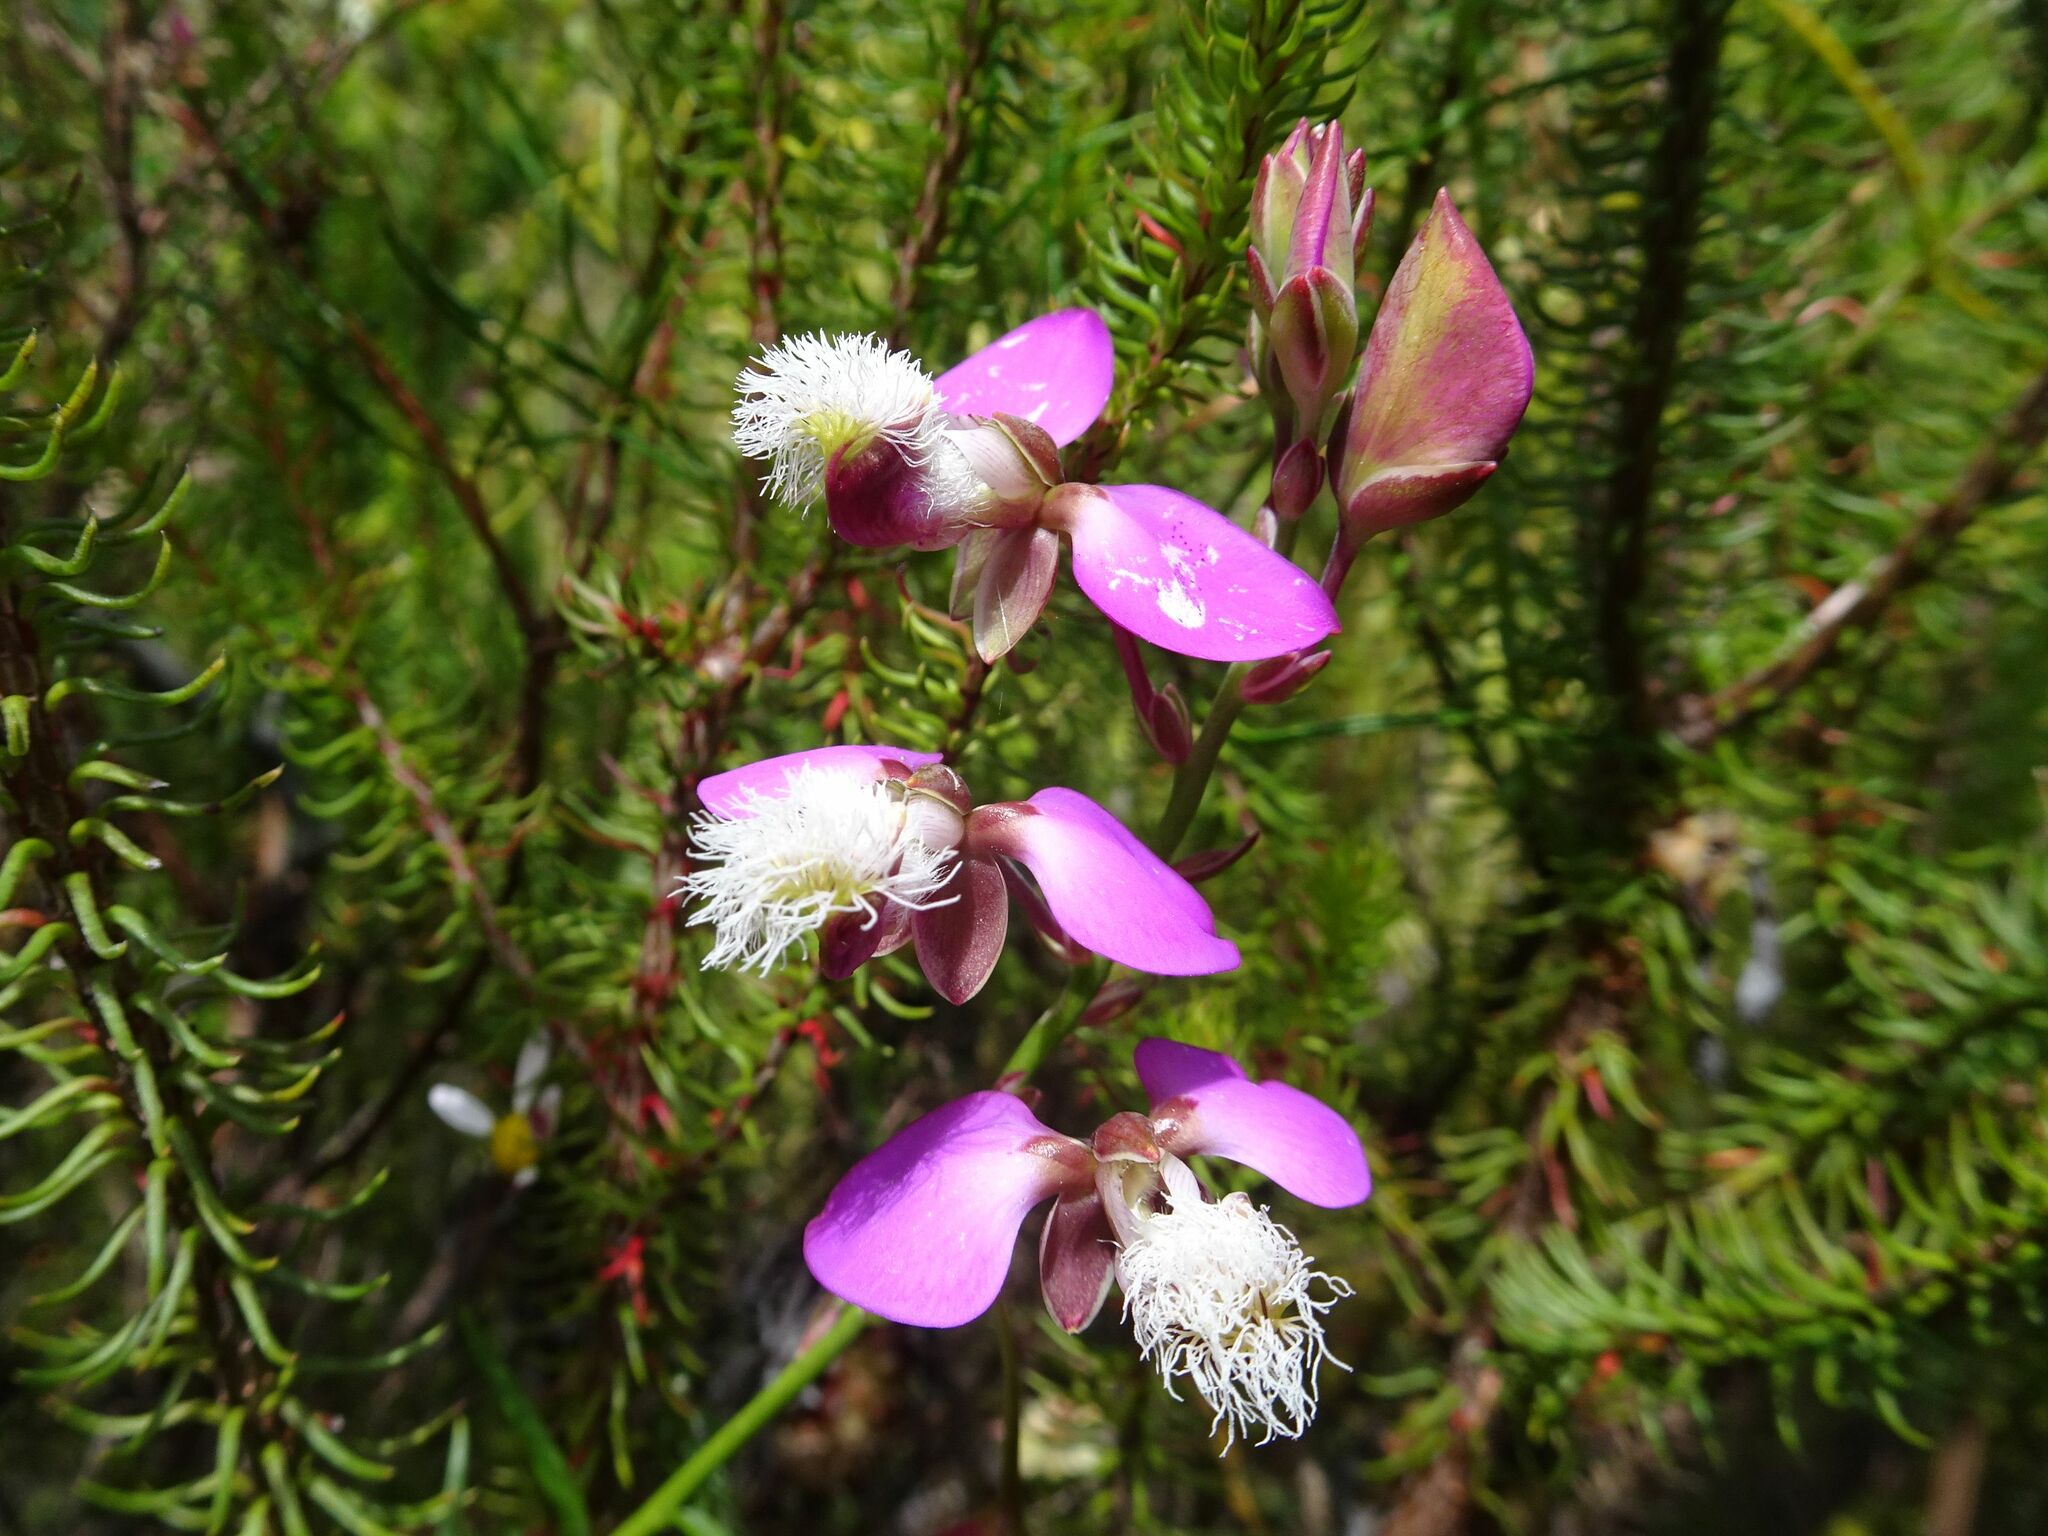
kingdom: Plantae
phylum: Tracheophyta
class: Magnoliopsida
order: Fabales
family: Polygalaceae
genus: Polygala
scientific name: Polygala bracteolata
